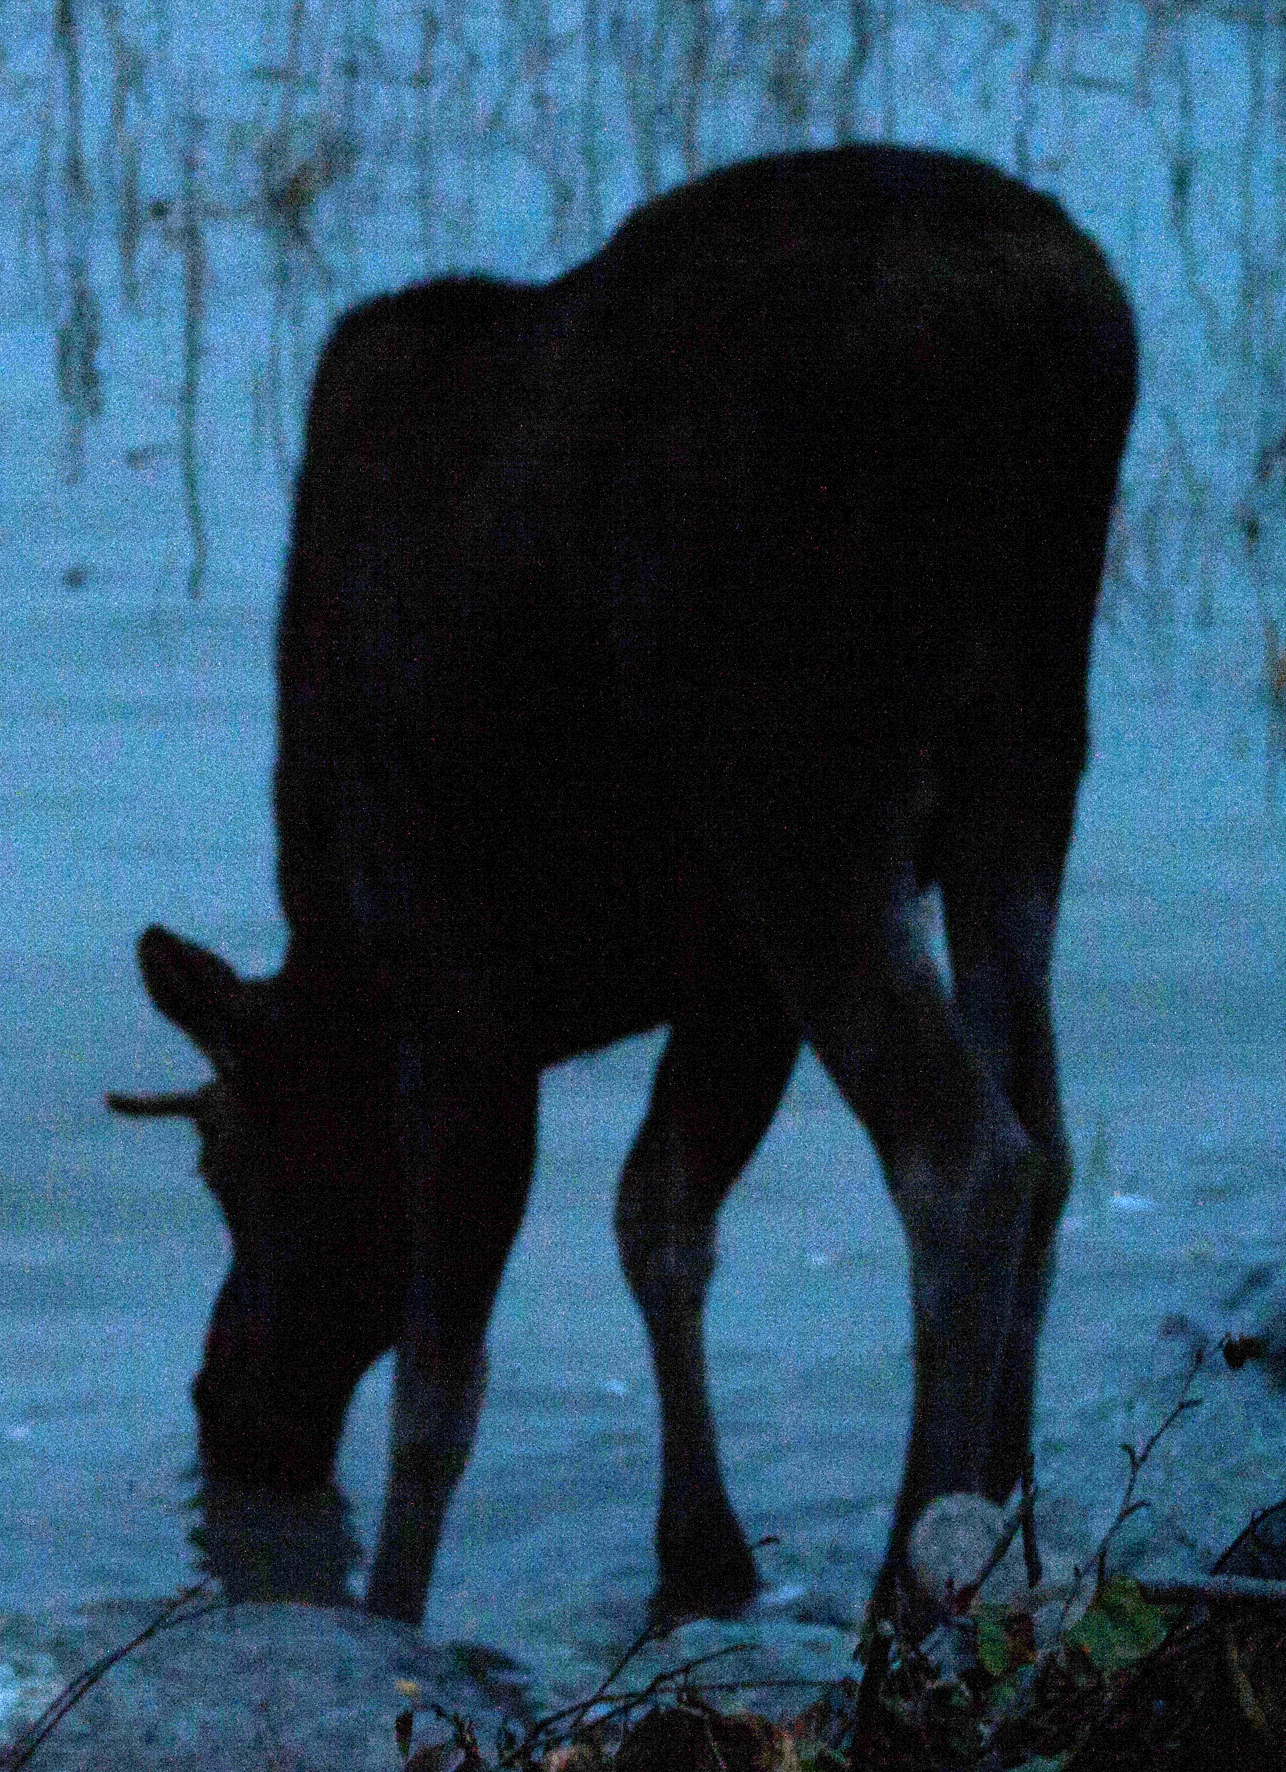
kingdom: Animalia
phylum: Chordata
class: Mammalia
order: Artiodactyla
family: Cervidae
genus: Alces
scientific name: Alces alces
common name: Moose
